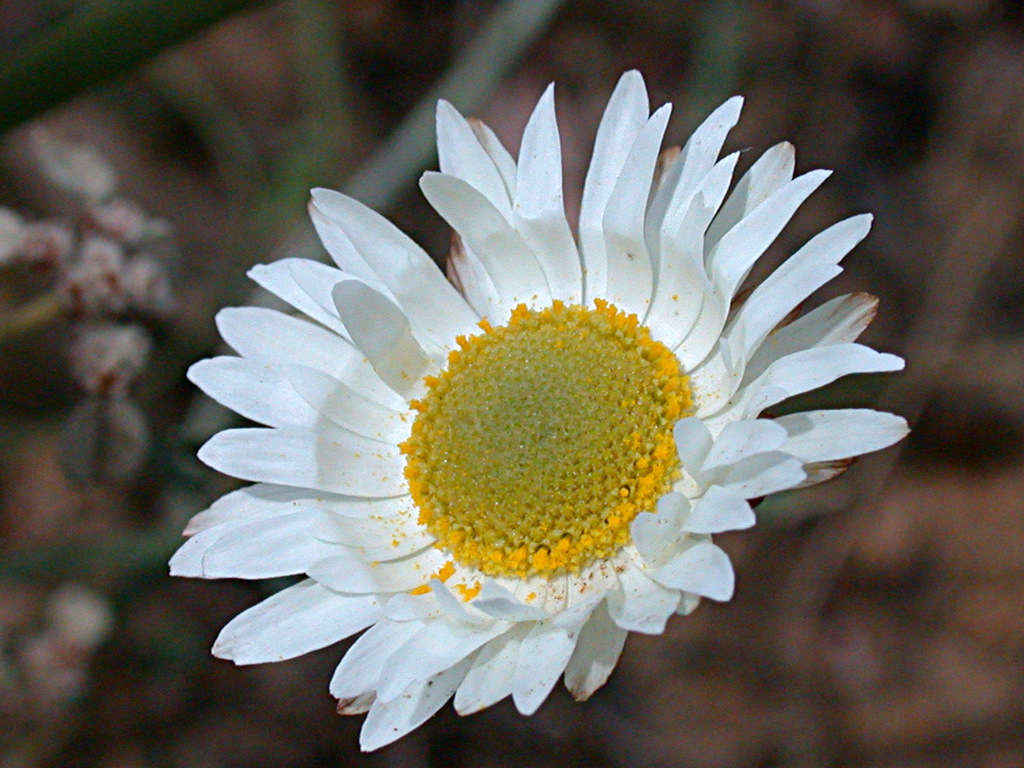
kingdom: Plantae
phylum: Tracheophyta
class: Magnoliopsida
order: Asterales
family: Asteraceae
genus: Argentipallium
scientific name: Argentipallium obtusifolium
